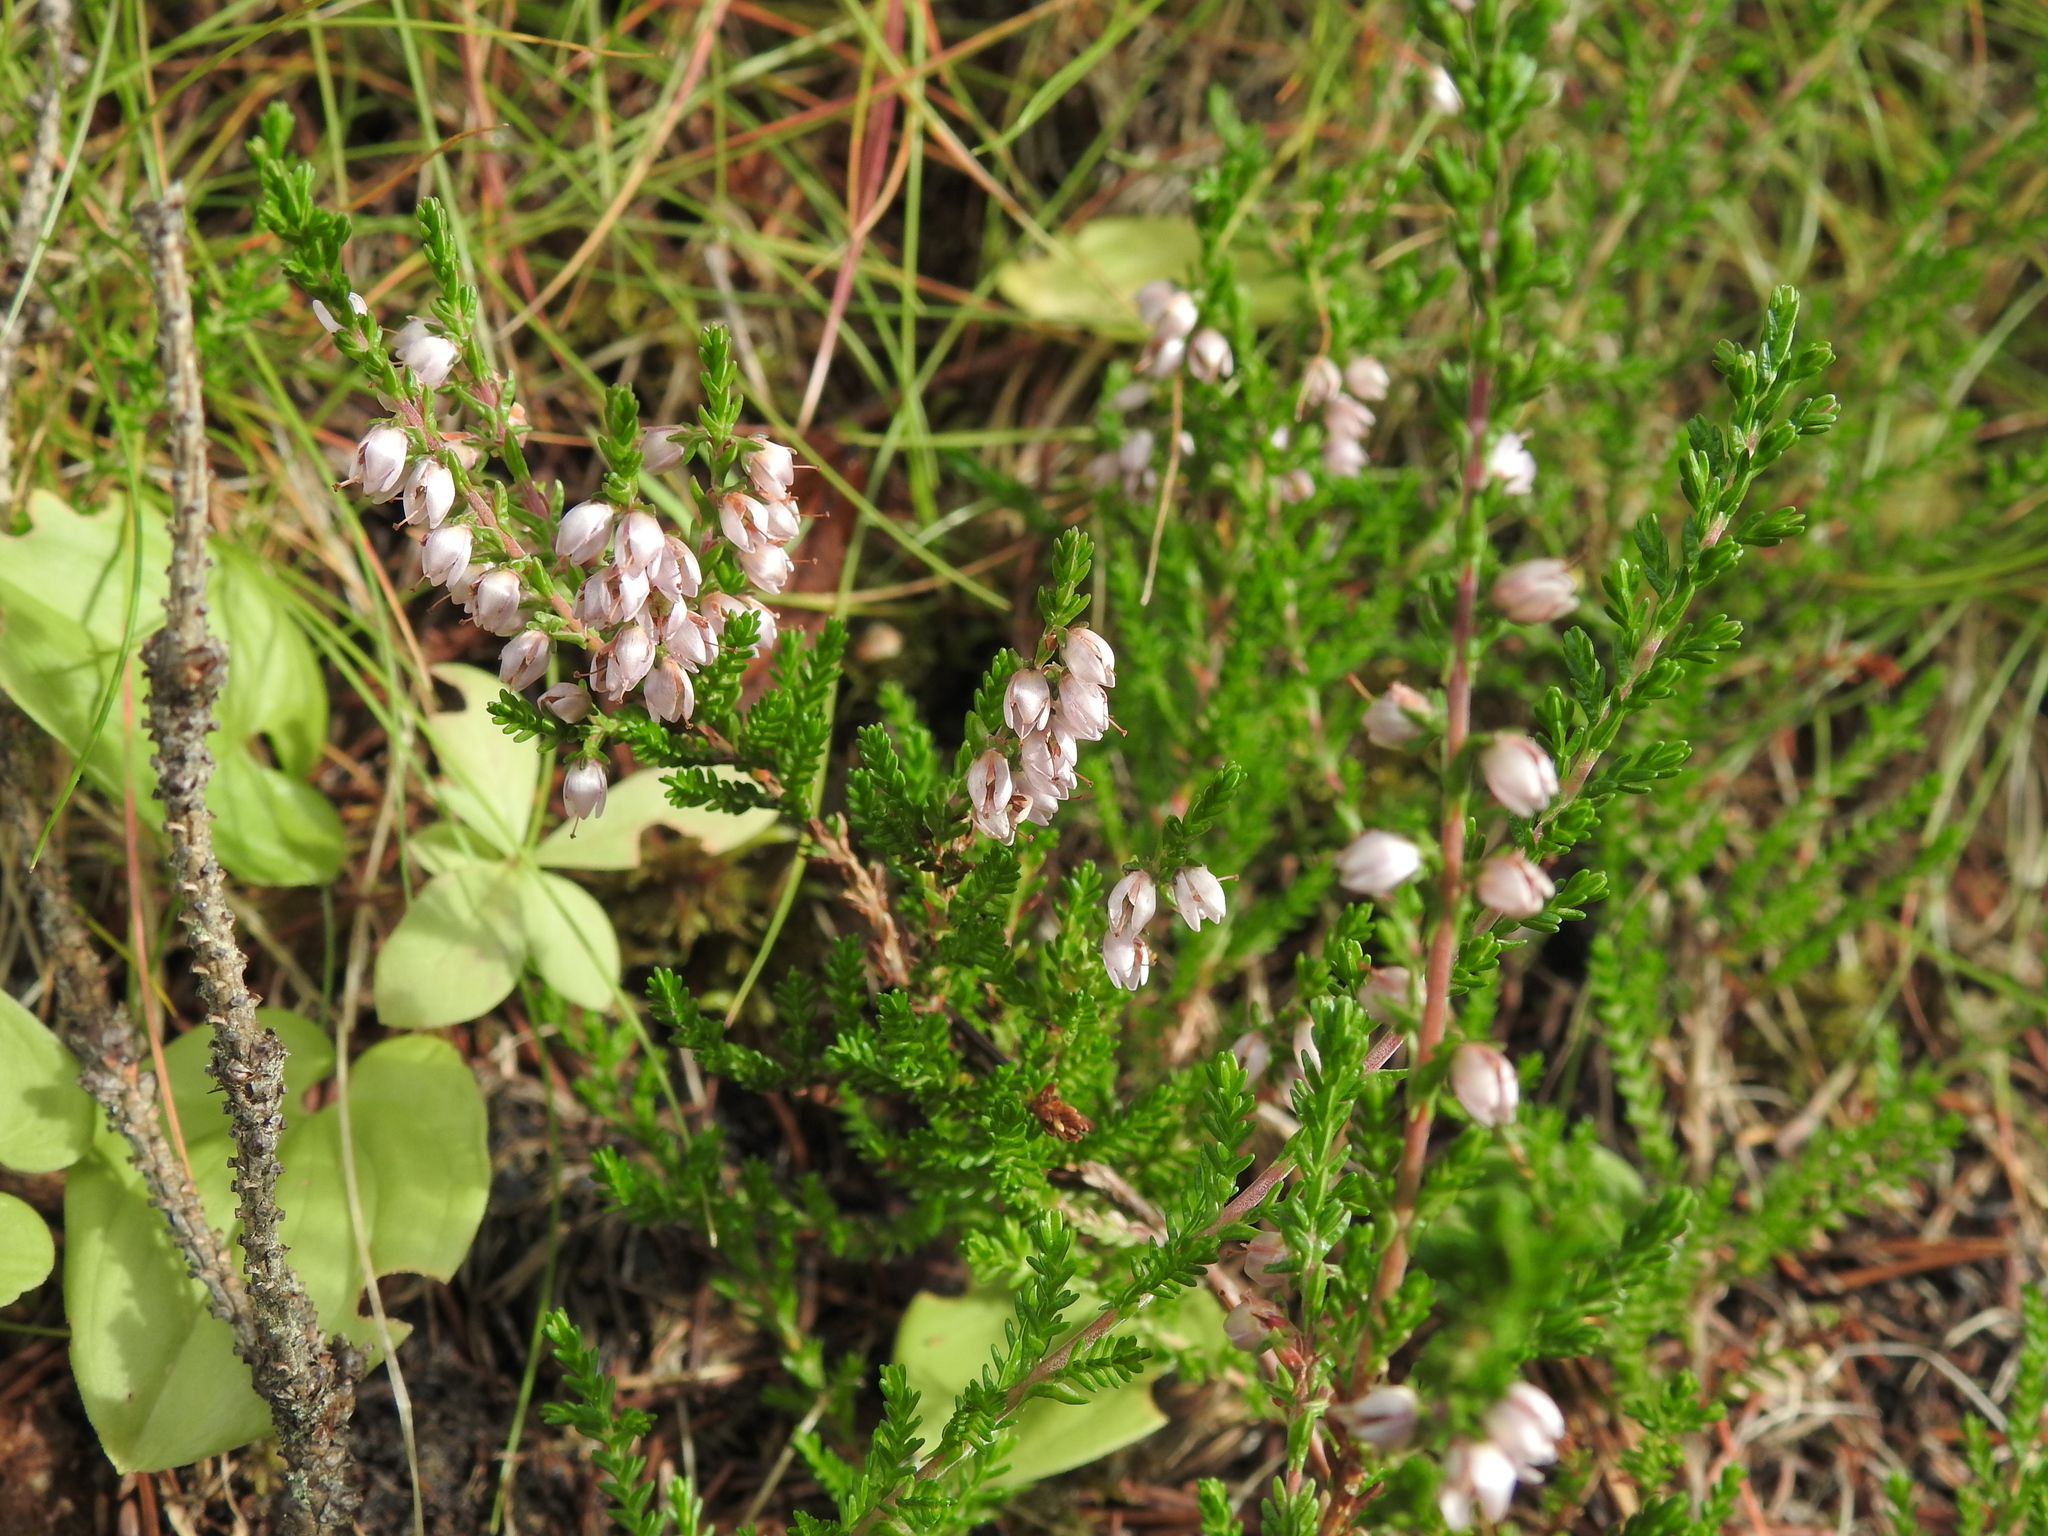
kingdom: Plantae
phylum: Tracheophyta
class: Magnoliopsida
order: Ericales
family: Ericaceae
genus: Calluna
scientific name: Calluna vulgaris
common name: Heather
